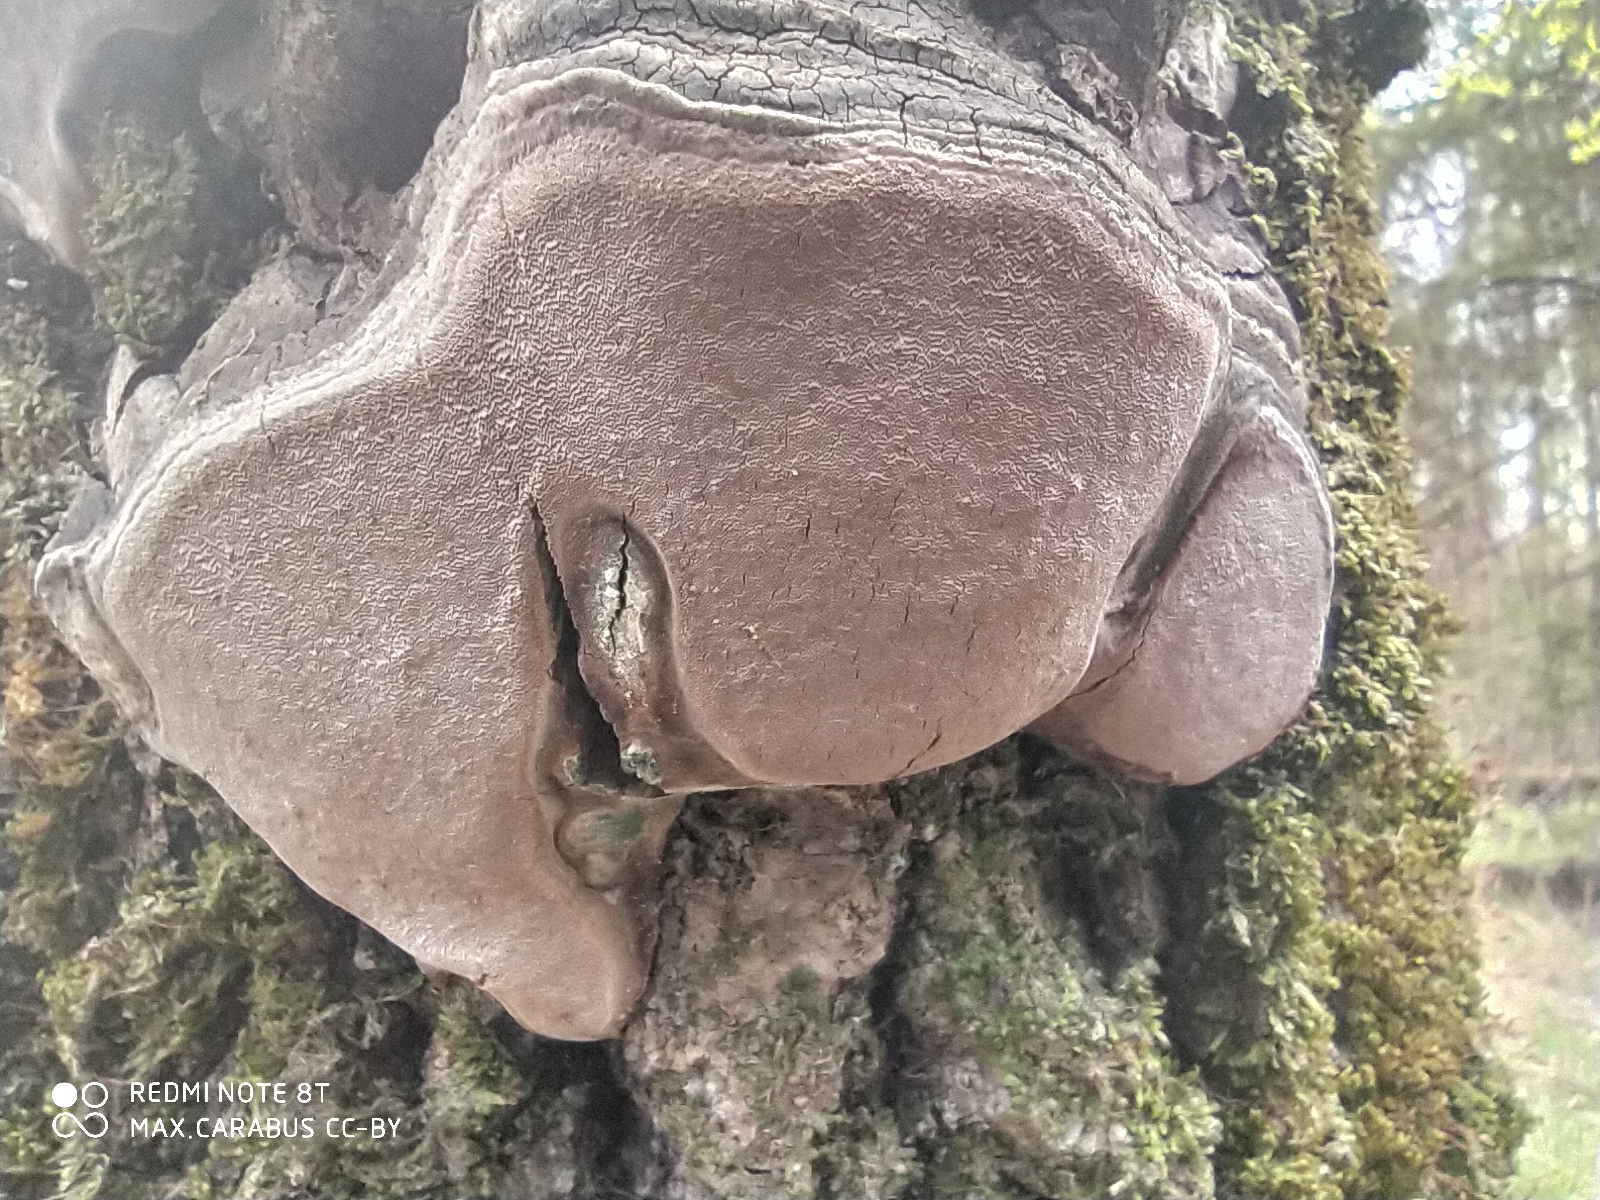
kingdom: Fungi
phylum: Basidiomycota
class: Agaricomycetes
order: Hymenochaetales
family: Hymenochaetaceae
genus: Phellinus
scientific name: Phellinus tremulae
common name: Aspen bracket
